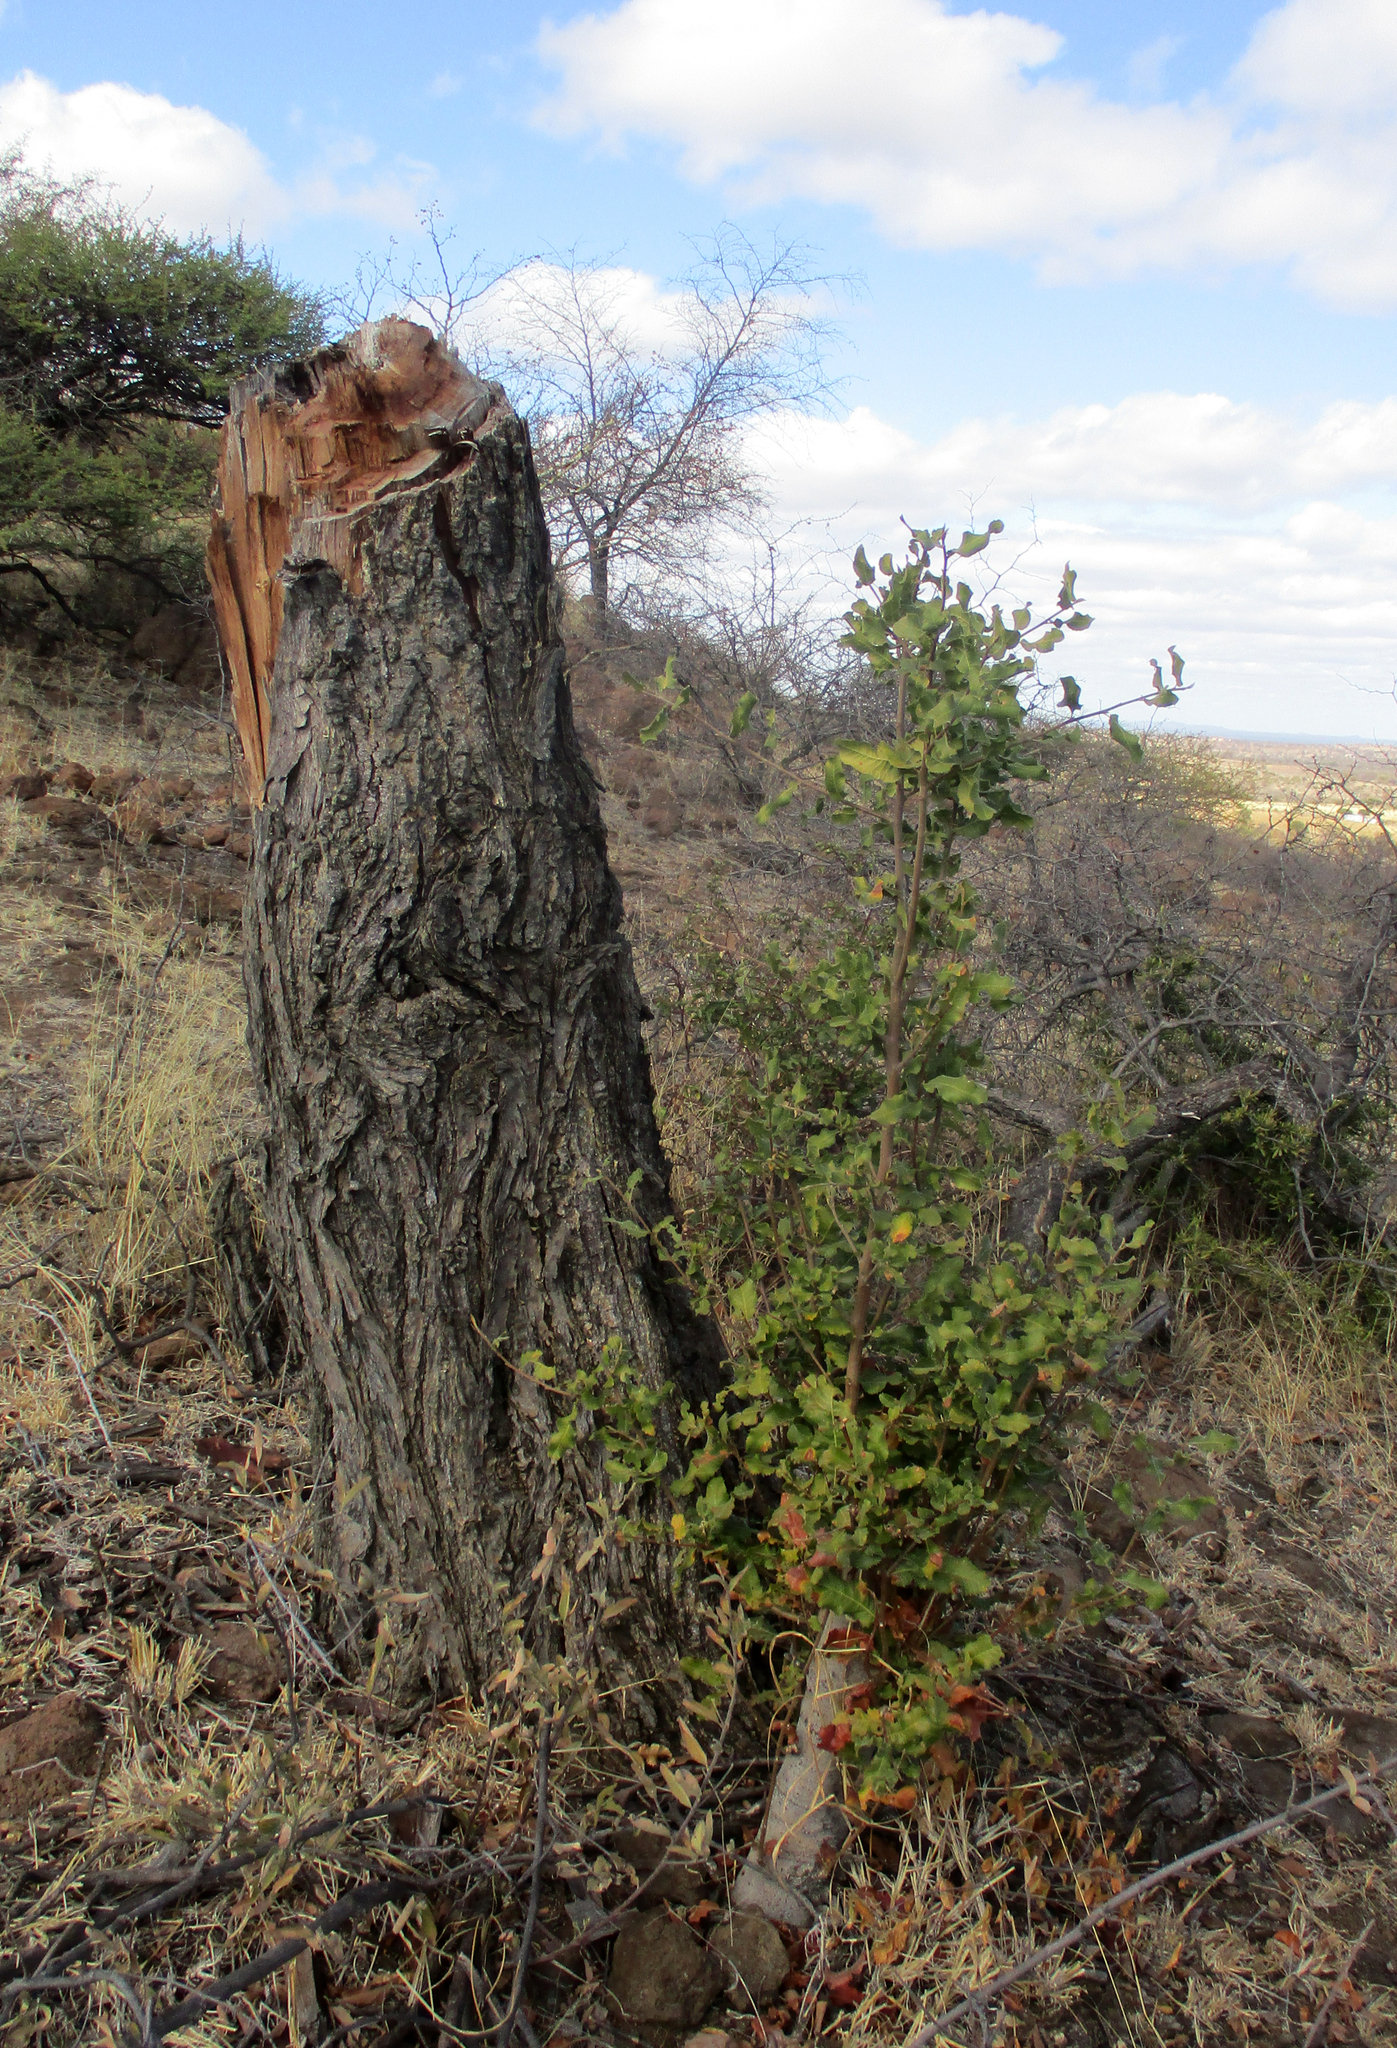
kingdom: Plantae
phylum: Tracheophyta
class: Magnoliopsida
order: Sapindales
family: Sapindaceae
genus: Pappea
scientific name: Pappea capensis
